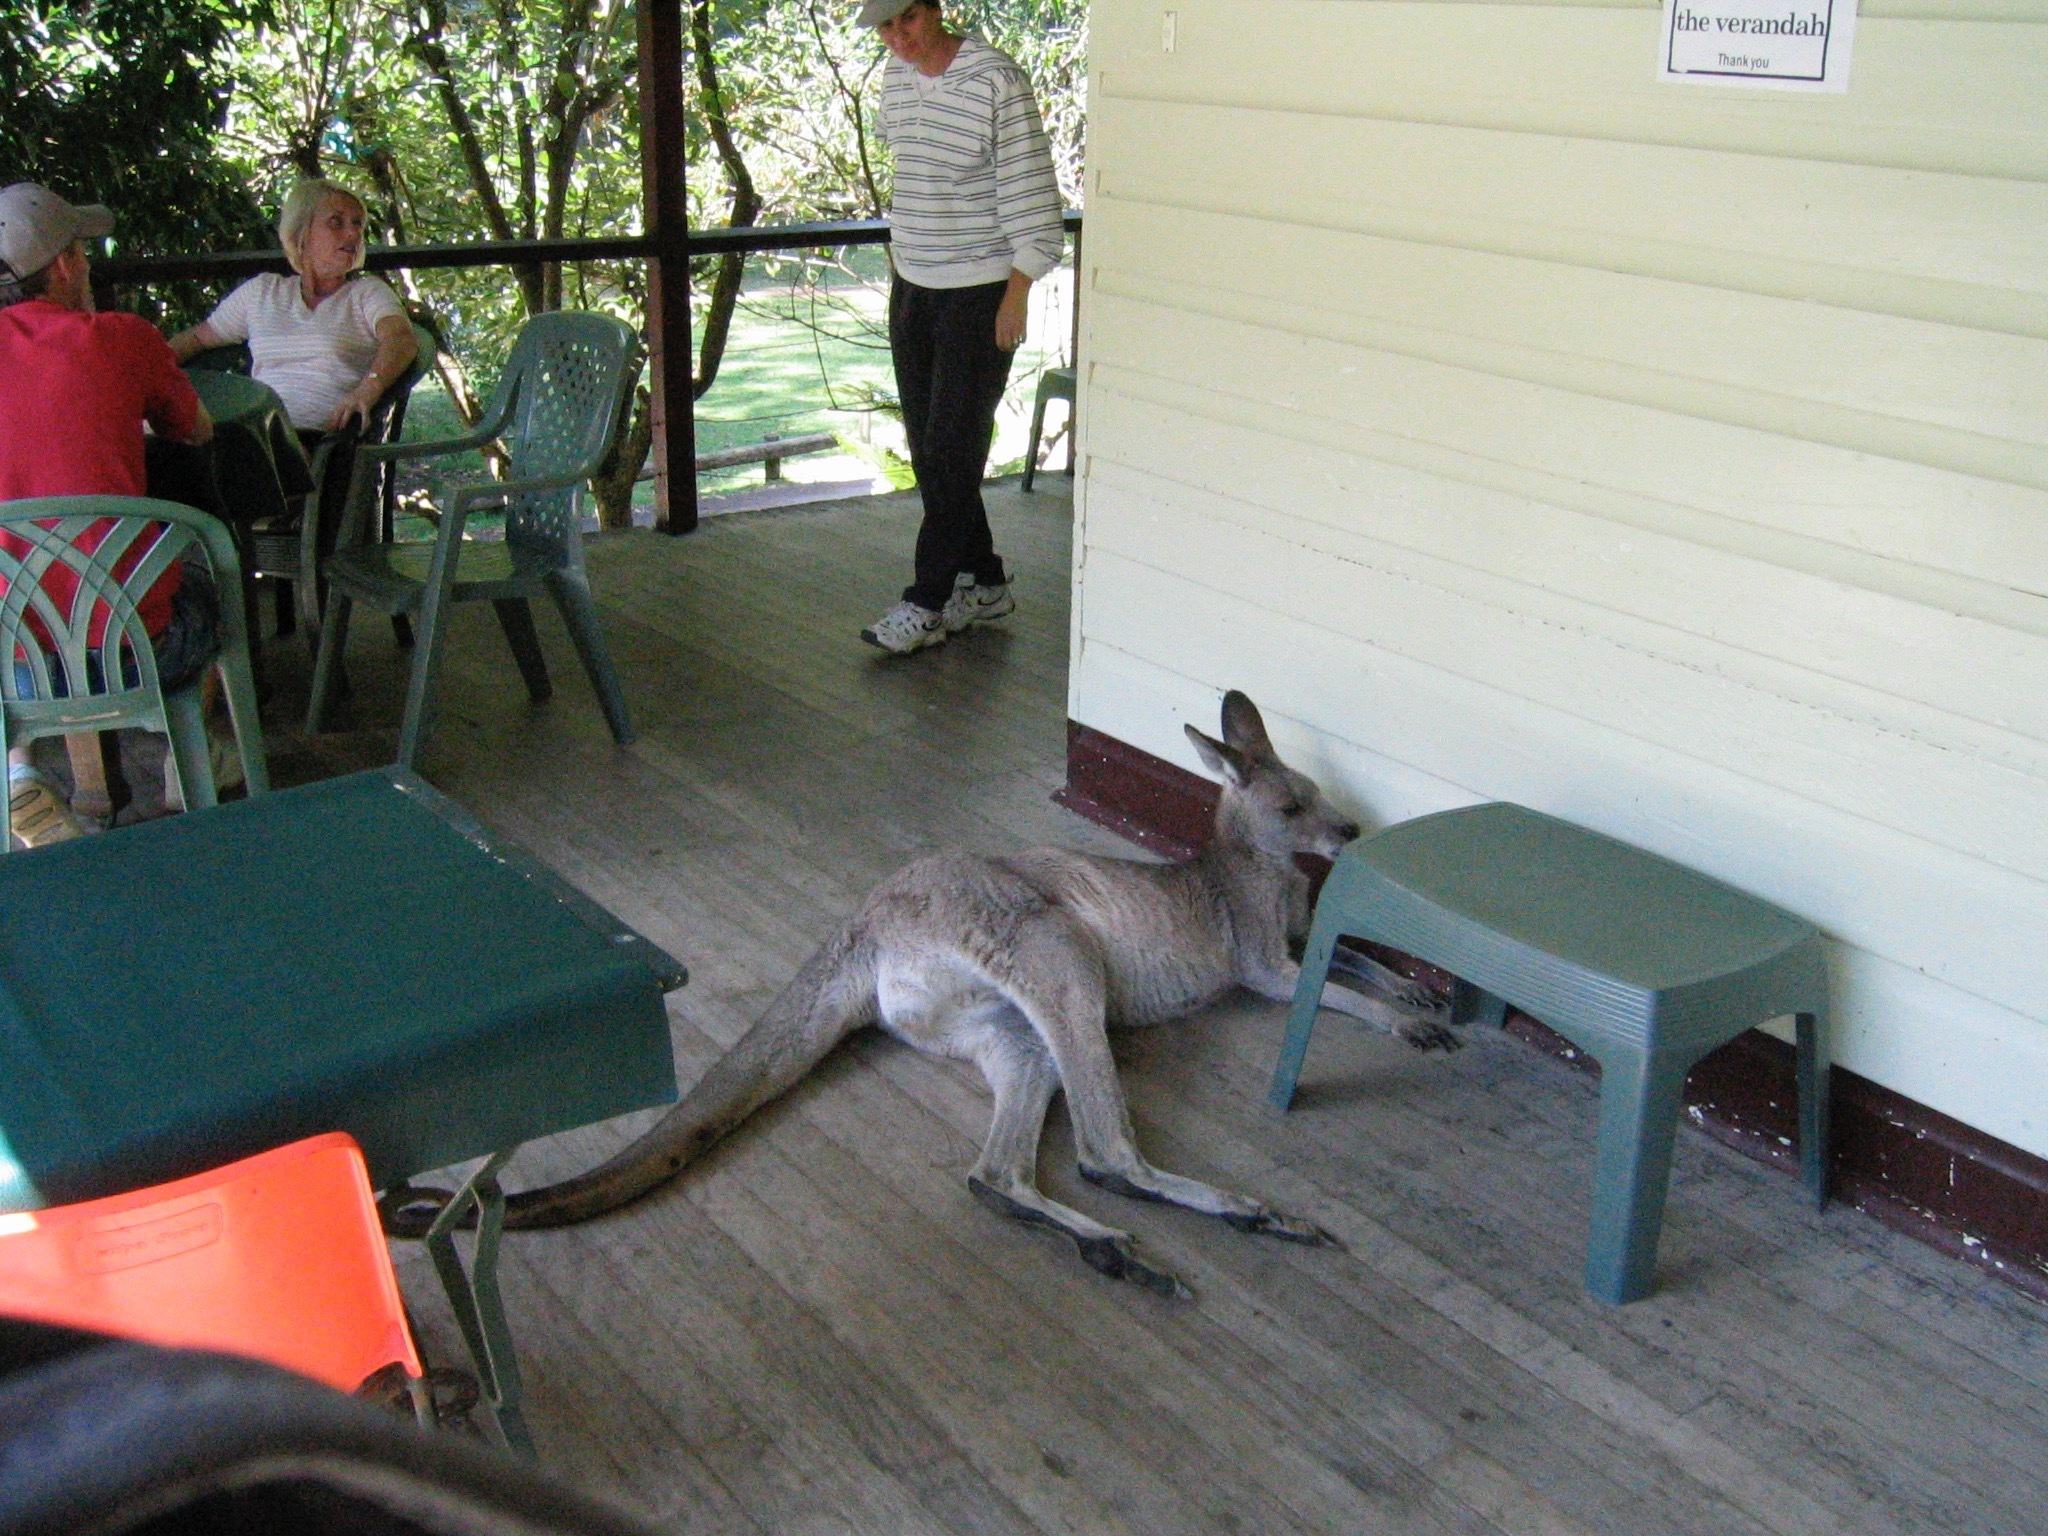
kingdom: Animalia
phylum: Chordata
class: Mammalia
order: Diprotodontia
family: Macropodidae
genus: Macropus
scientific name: Macropus giganteus
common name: Eastern grey kangaroo
